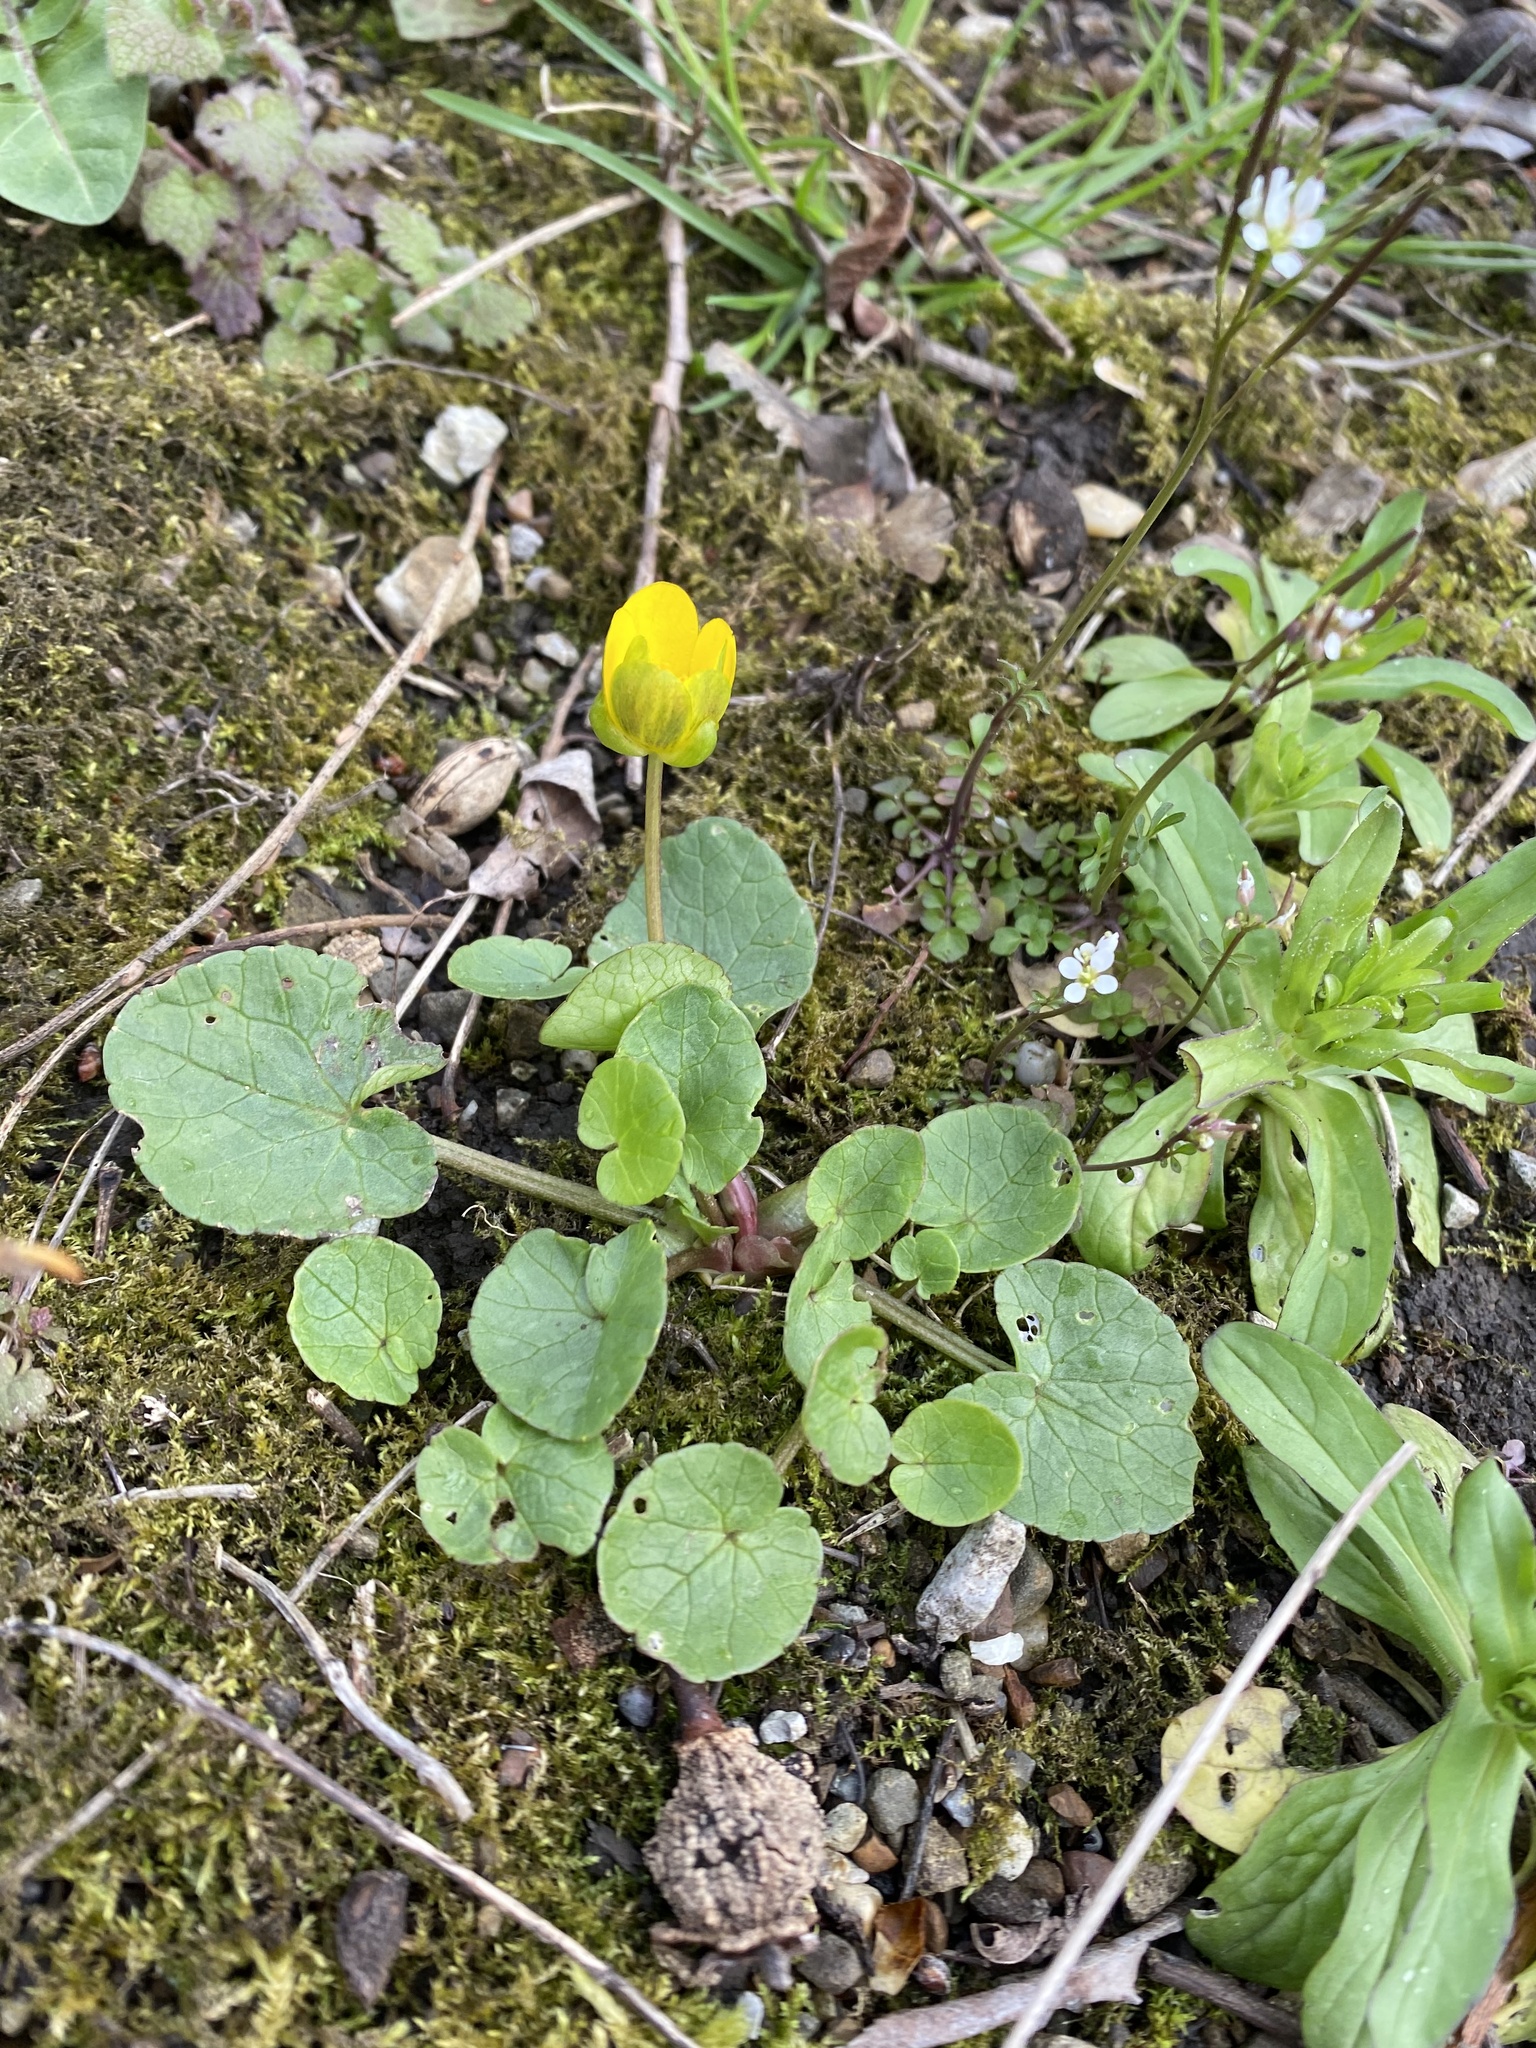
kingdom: Plantae
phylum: Tracheophyta
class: Magnoliopsida
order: Ranunculales
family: Ranunculaceae
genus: Ficaria
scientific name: Ficaria verna
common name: Lesser celandine
